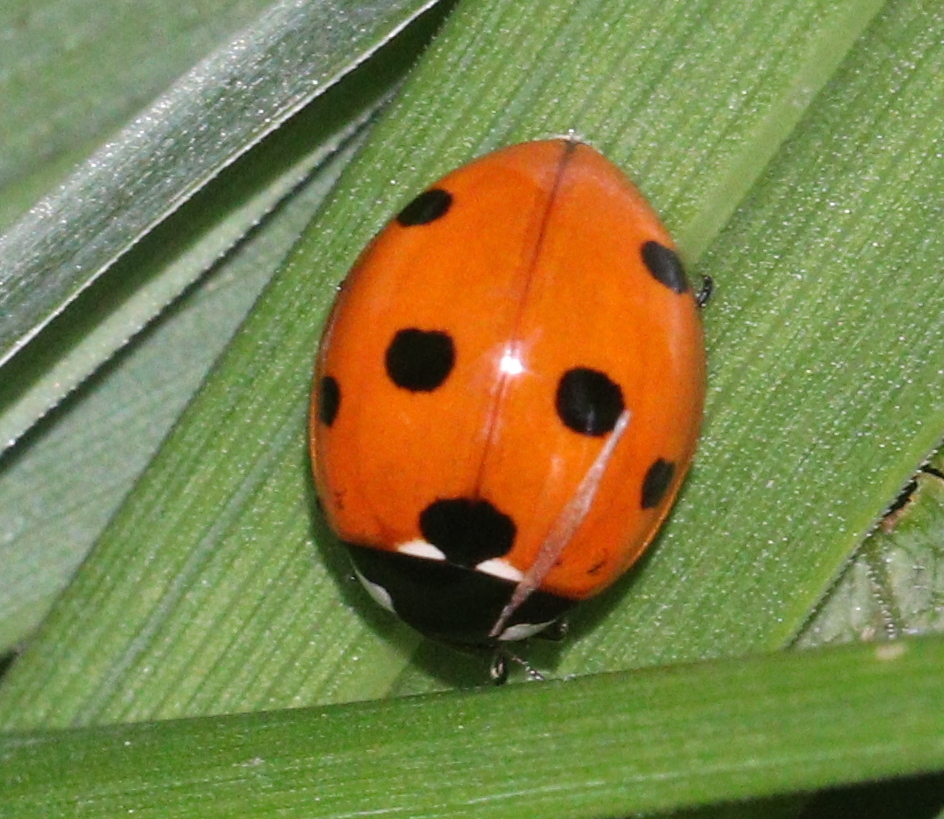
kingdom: Animalia
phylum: Arthropoda
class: Insecta
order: Coleoptera
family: Coccinellidae
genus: Coccinella
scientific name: Coccinella septempunctata
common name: Sevenspotted lady beetle
